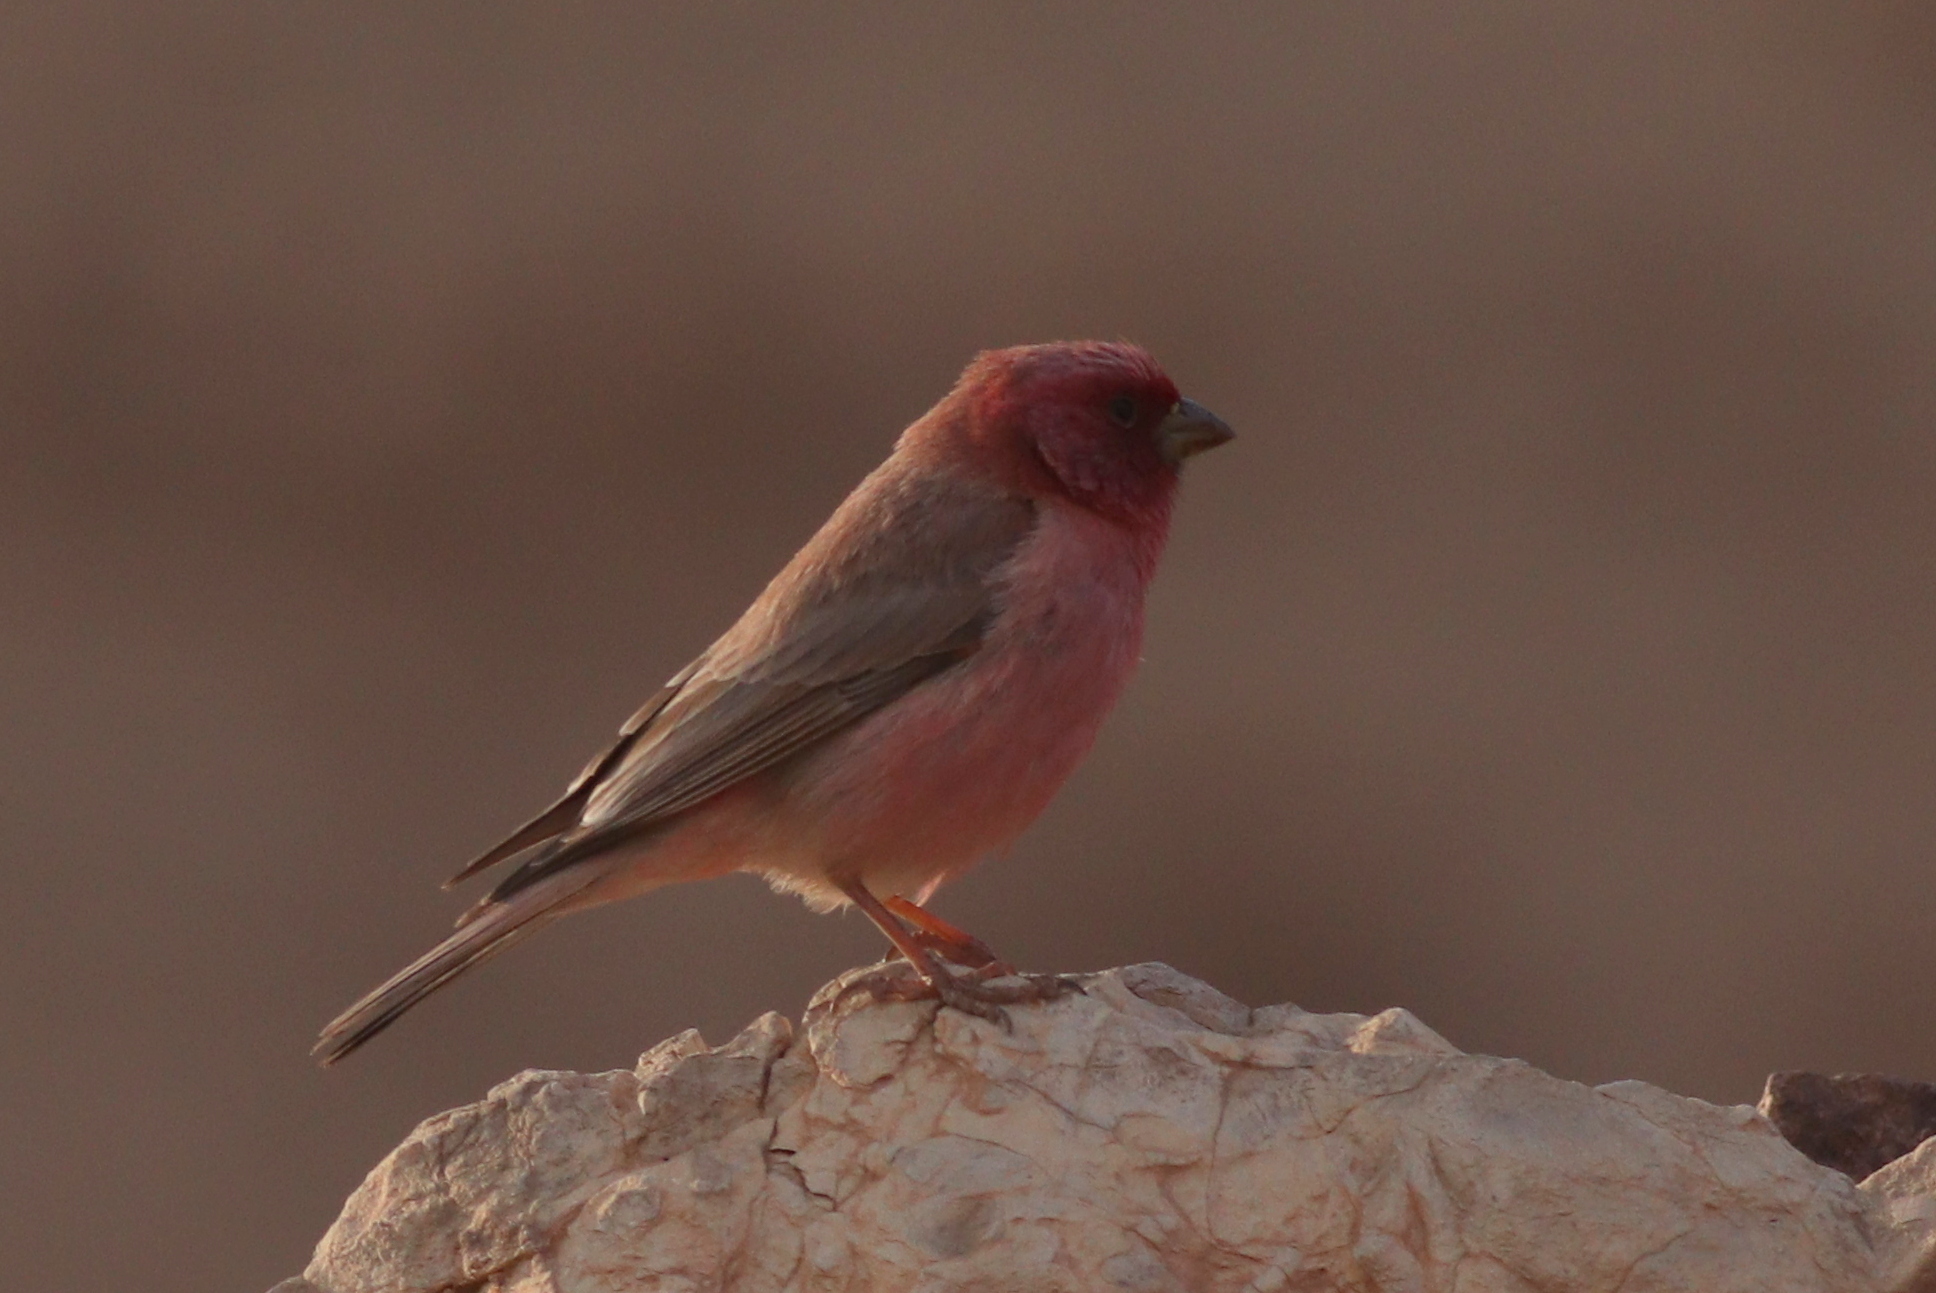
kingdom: Animalia
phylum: Chordata
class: Aves
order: Passeriformes
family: Fringillidae
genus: Carpodacus
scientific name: Carpodacus synoicus
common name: Sinai rosefinch
